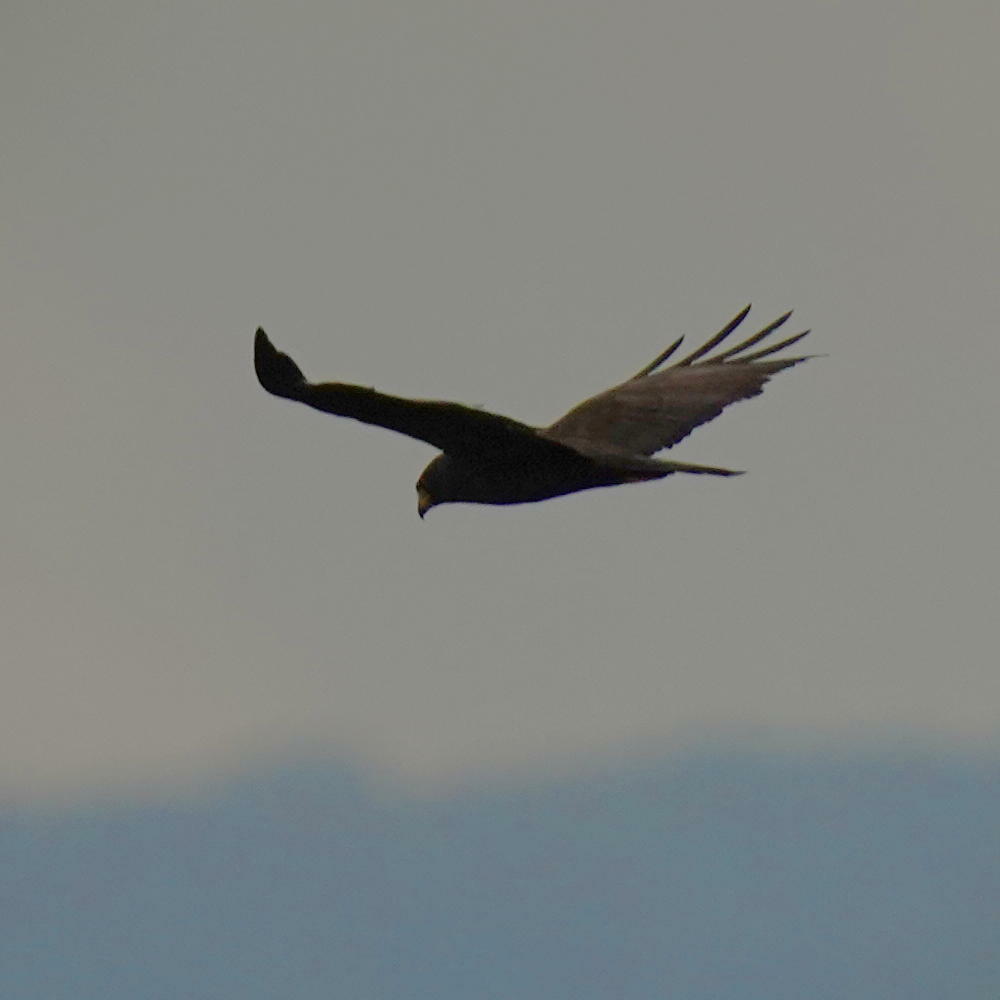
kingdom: Animalia
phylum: Chordata
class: Aves
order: Accipitriformes
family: Accipitridae
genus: Buteo
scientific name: Buteo albonotatus
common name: Zone-tailed hawk
